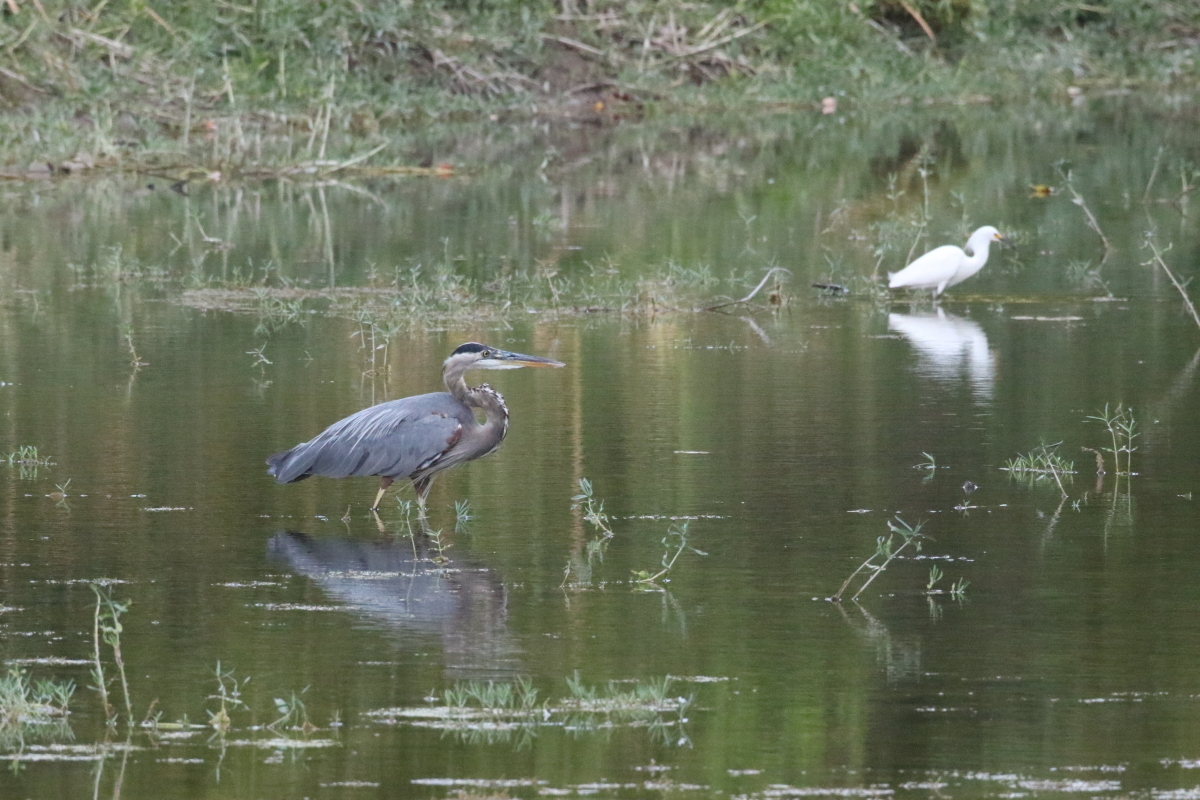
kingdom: Animalia
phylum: Chordata
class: Aves
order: Pelecaniformes
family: Ardeidae
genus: Ardea
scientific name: Ardea herodias
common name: Great blue heron
